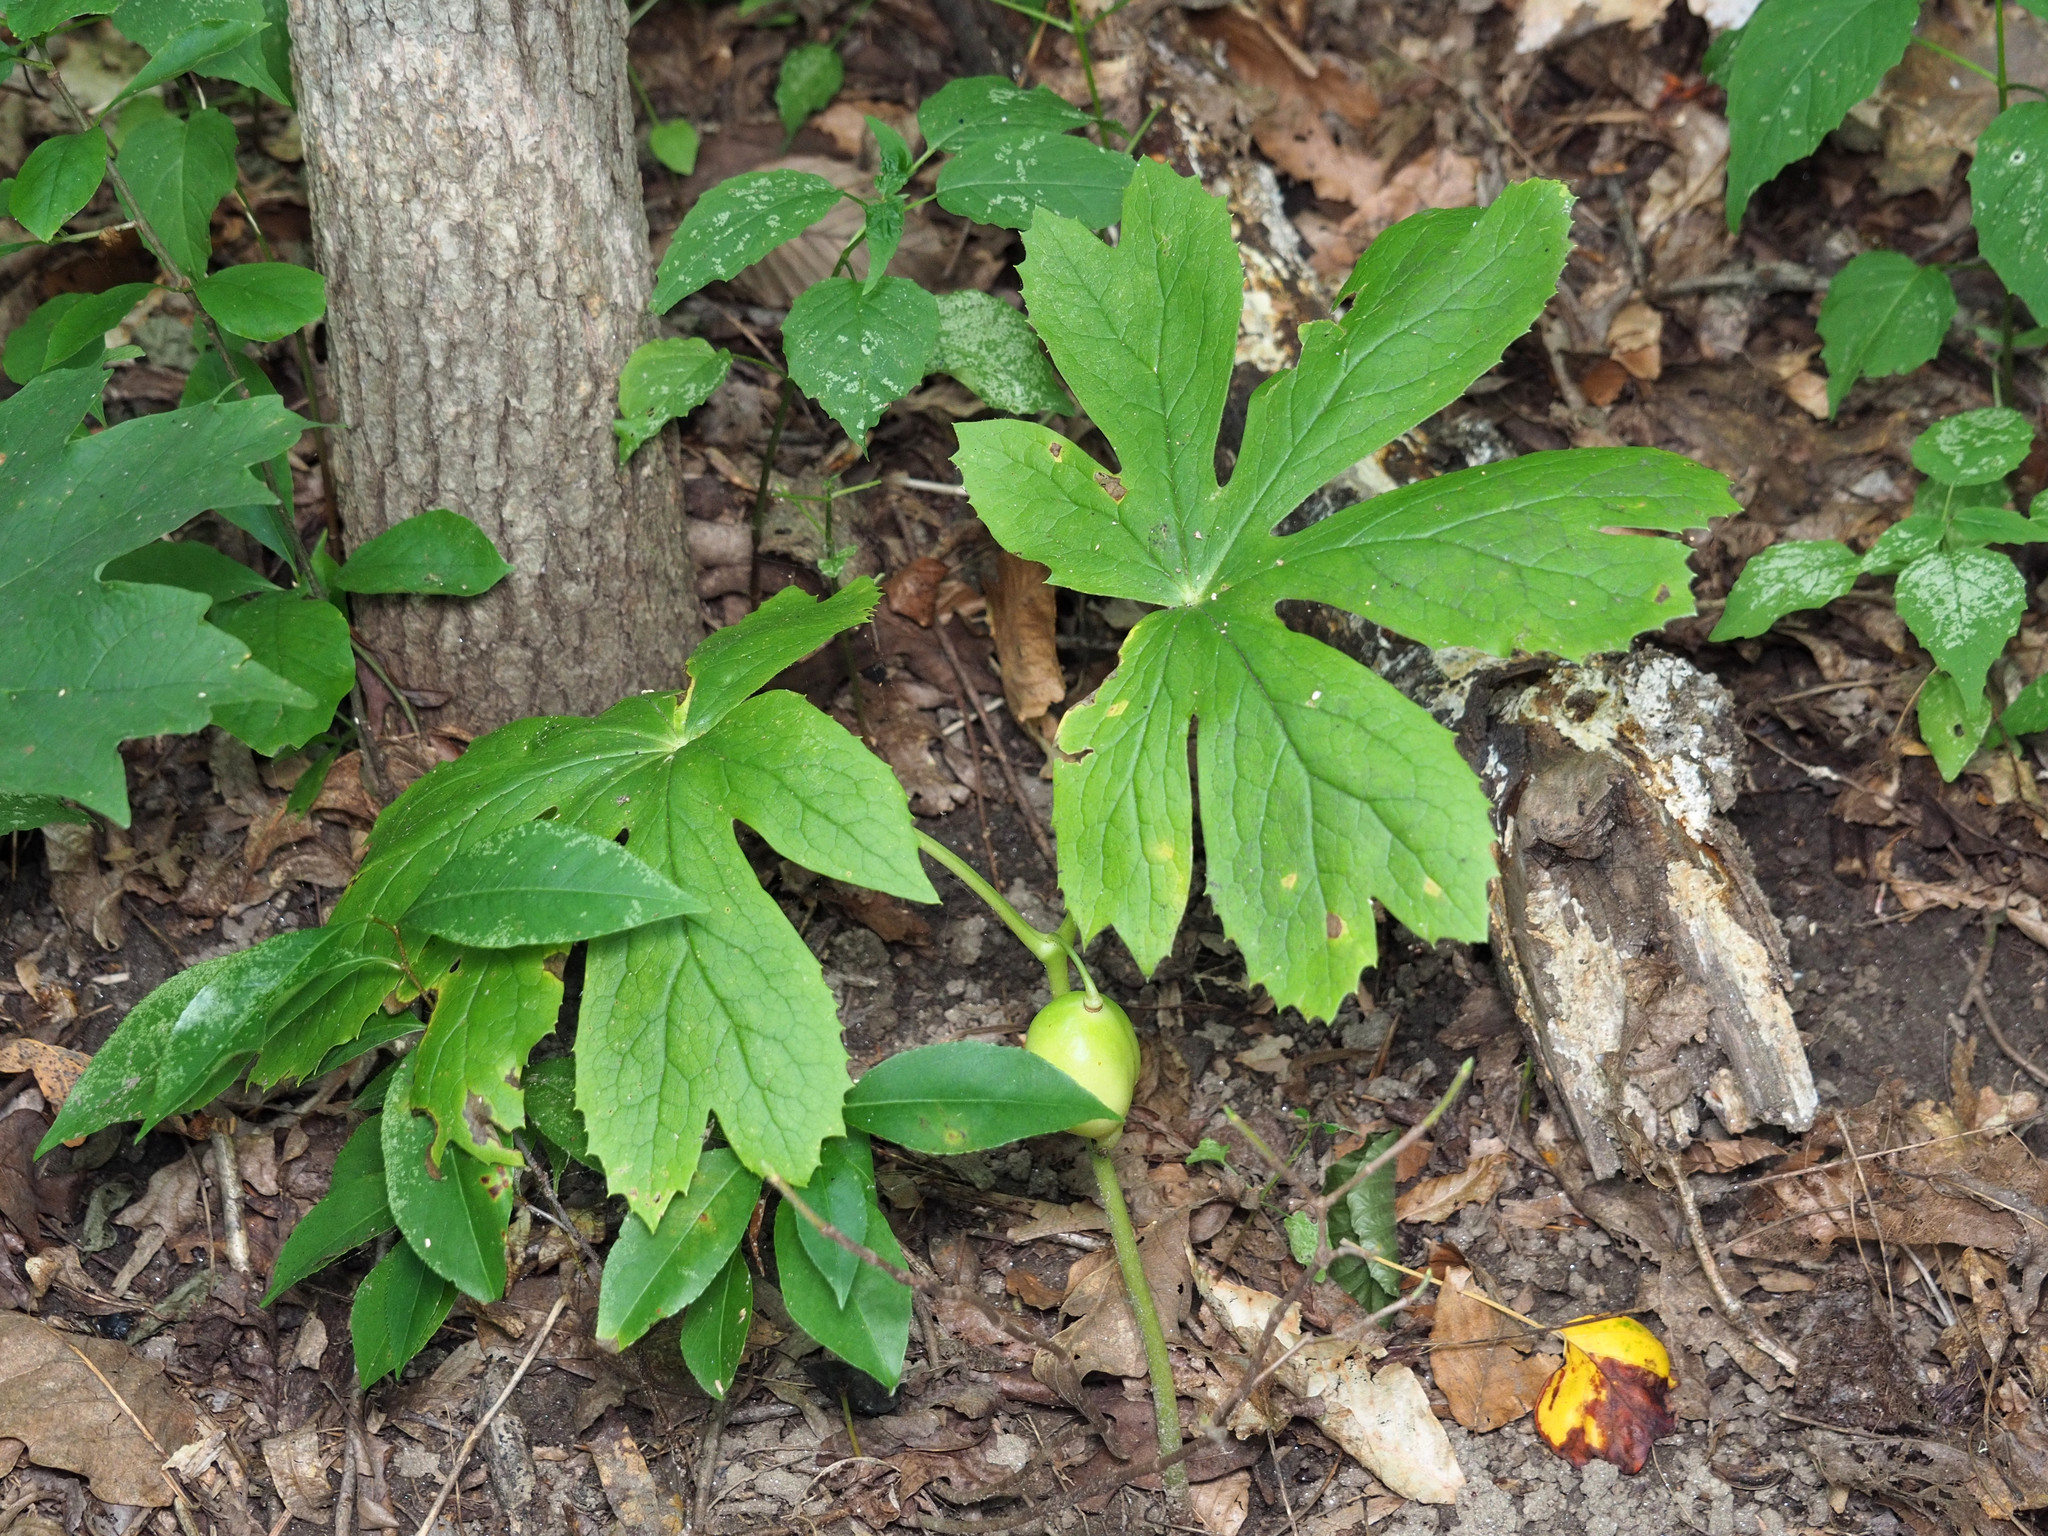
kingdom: Plantae
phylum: Tracheophyta
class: Magnoliopsida
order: Ranunculales
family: Berberidaceae
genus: Podophyllum
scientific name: Podophyllum peltatum
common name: Wild mandrake
